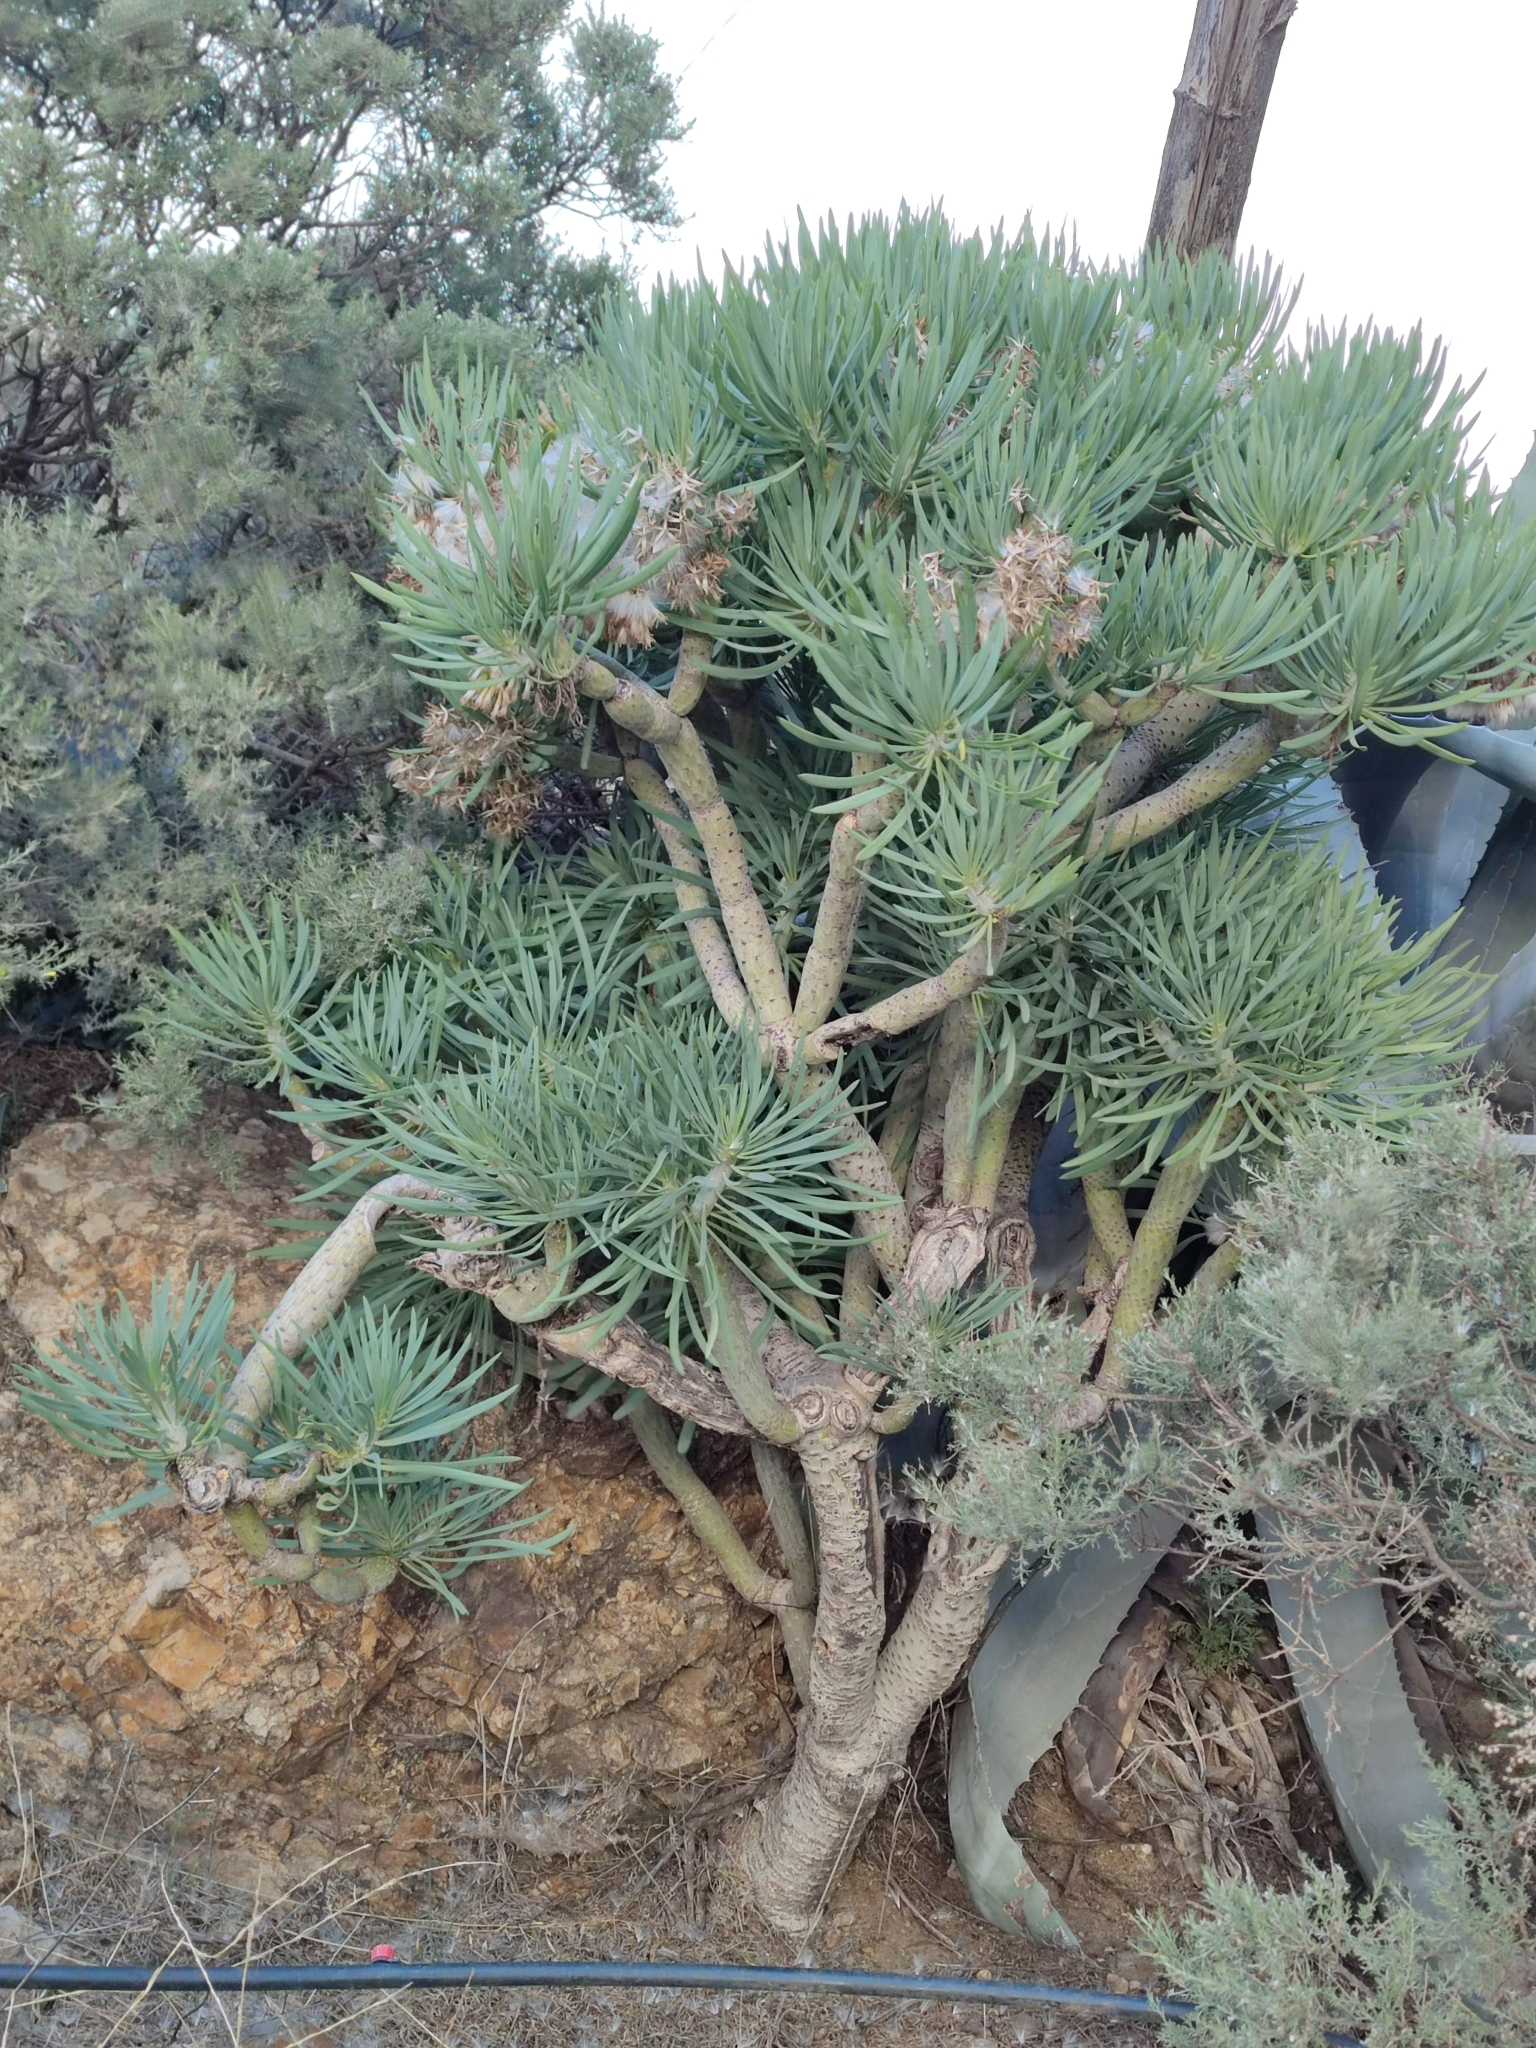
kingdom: Plantae
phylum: Tracheophyta
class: Magnoliopsida
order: Asterales
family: Asteraceae
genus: Kleinia
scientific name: Kleinia neriifolia
